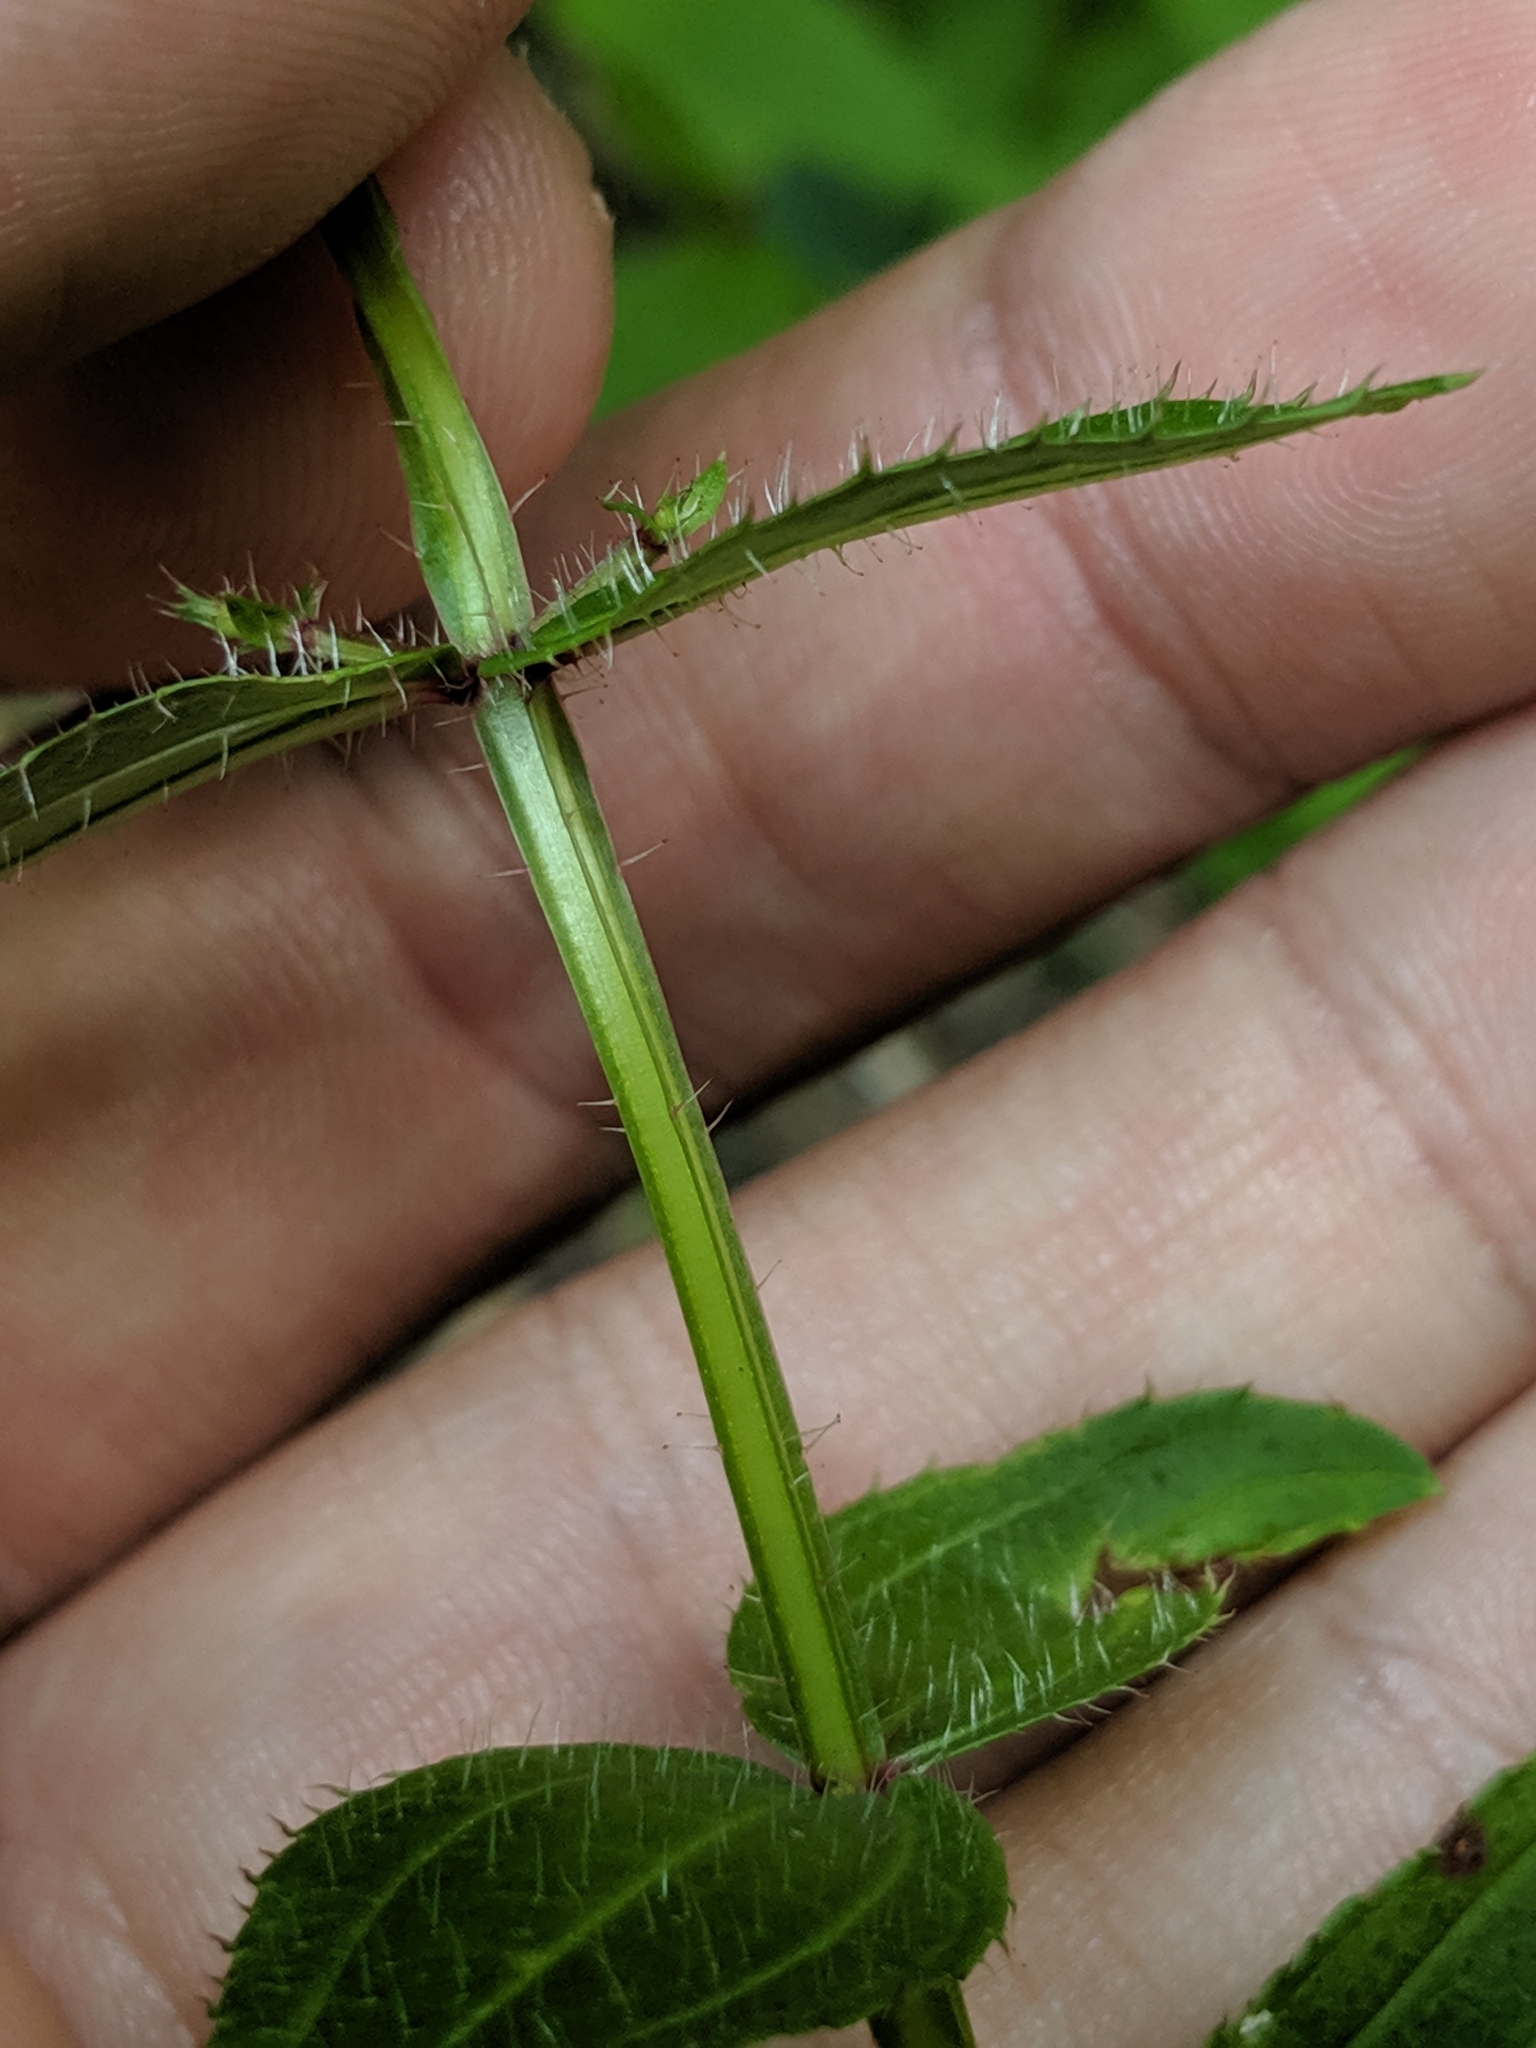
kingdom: Plantae
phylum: Tracheophyta
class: Magnoliopsida
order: Myrtales
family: Melastomataceae
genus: Rhexia
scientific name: Rhexia virginica
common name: Common meadow beauty
